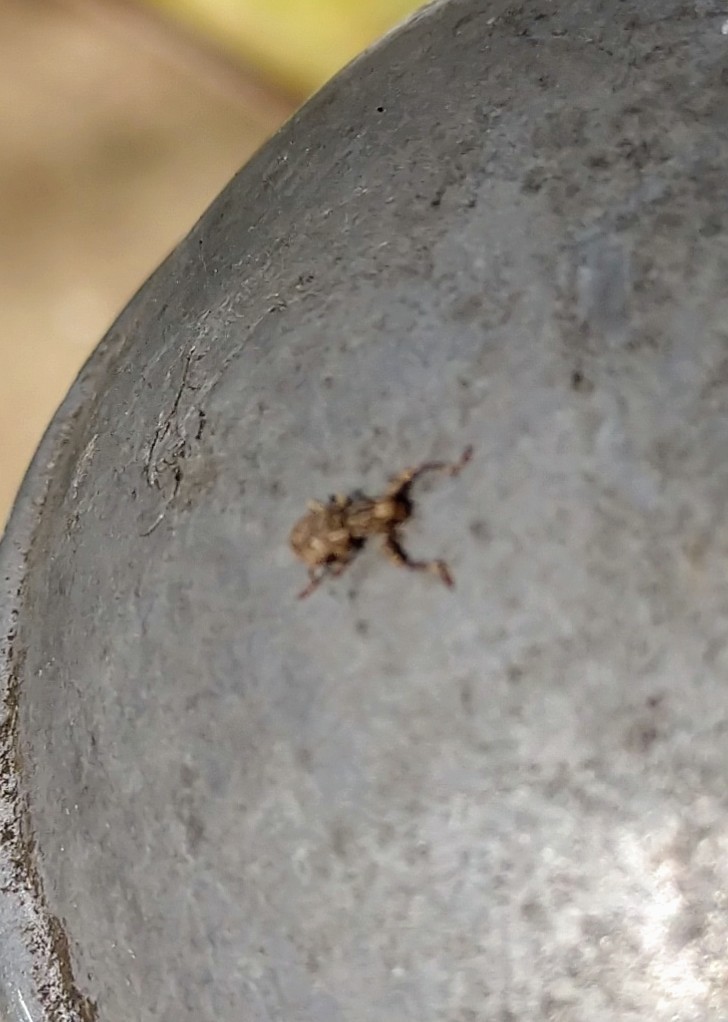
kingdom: Animalia
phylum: Arthropoda
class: Insecta
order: Coleoptera
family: Curculionidae
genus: Pandeleteius
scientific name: Pandeleteius hilaris
